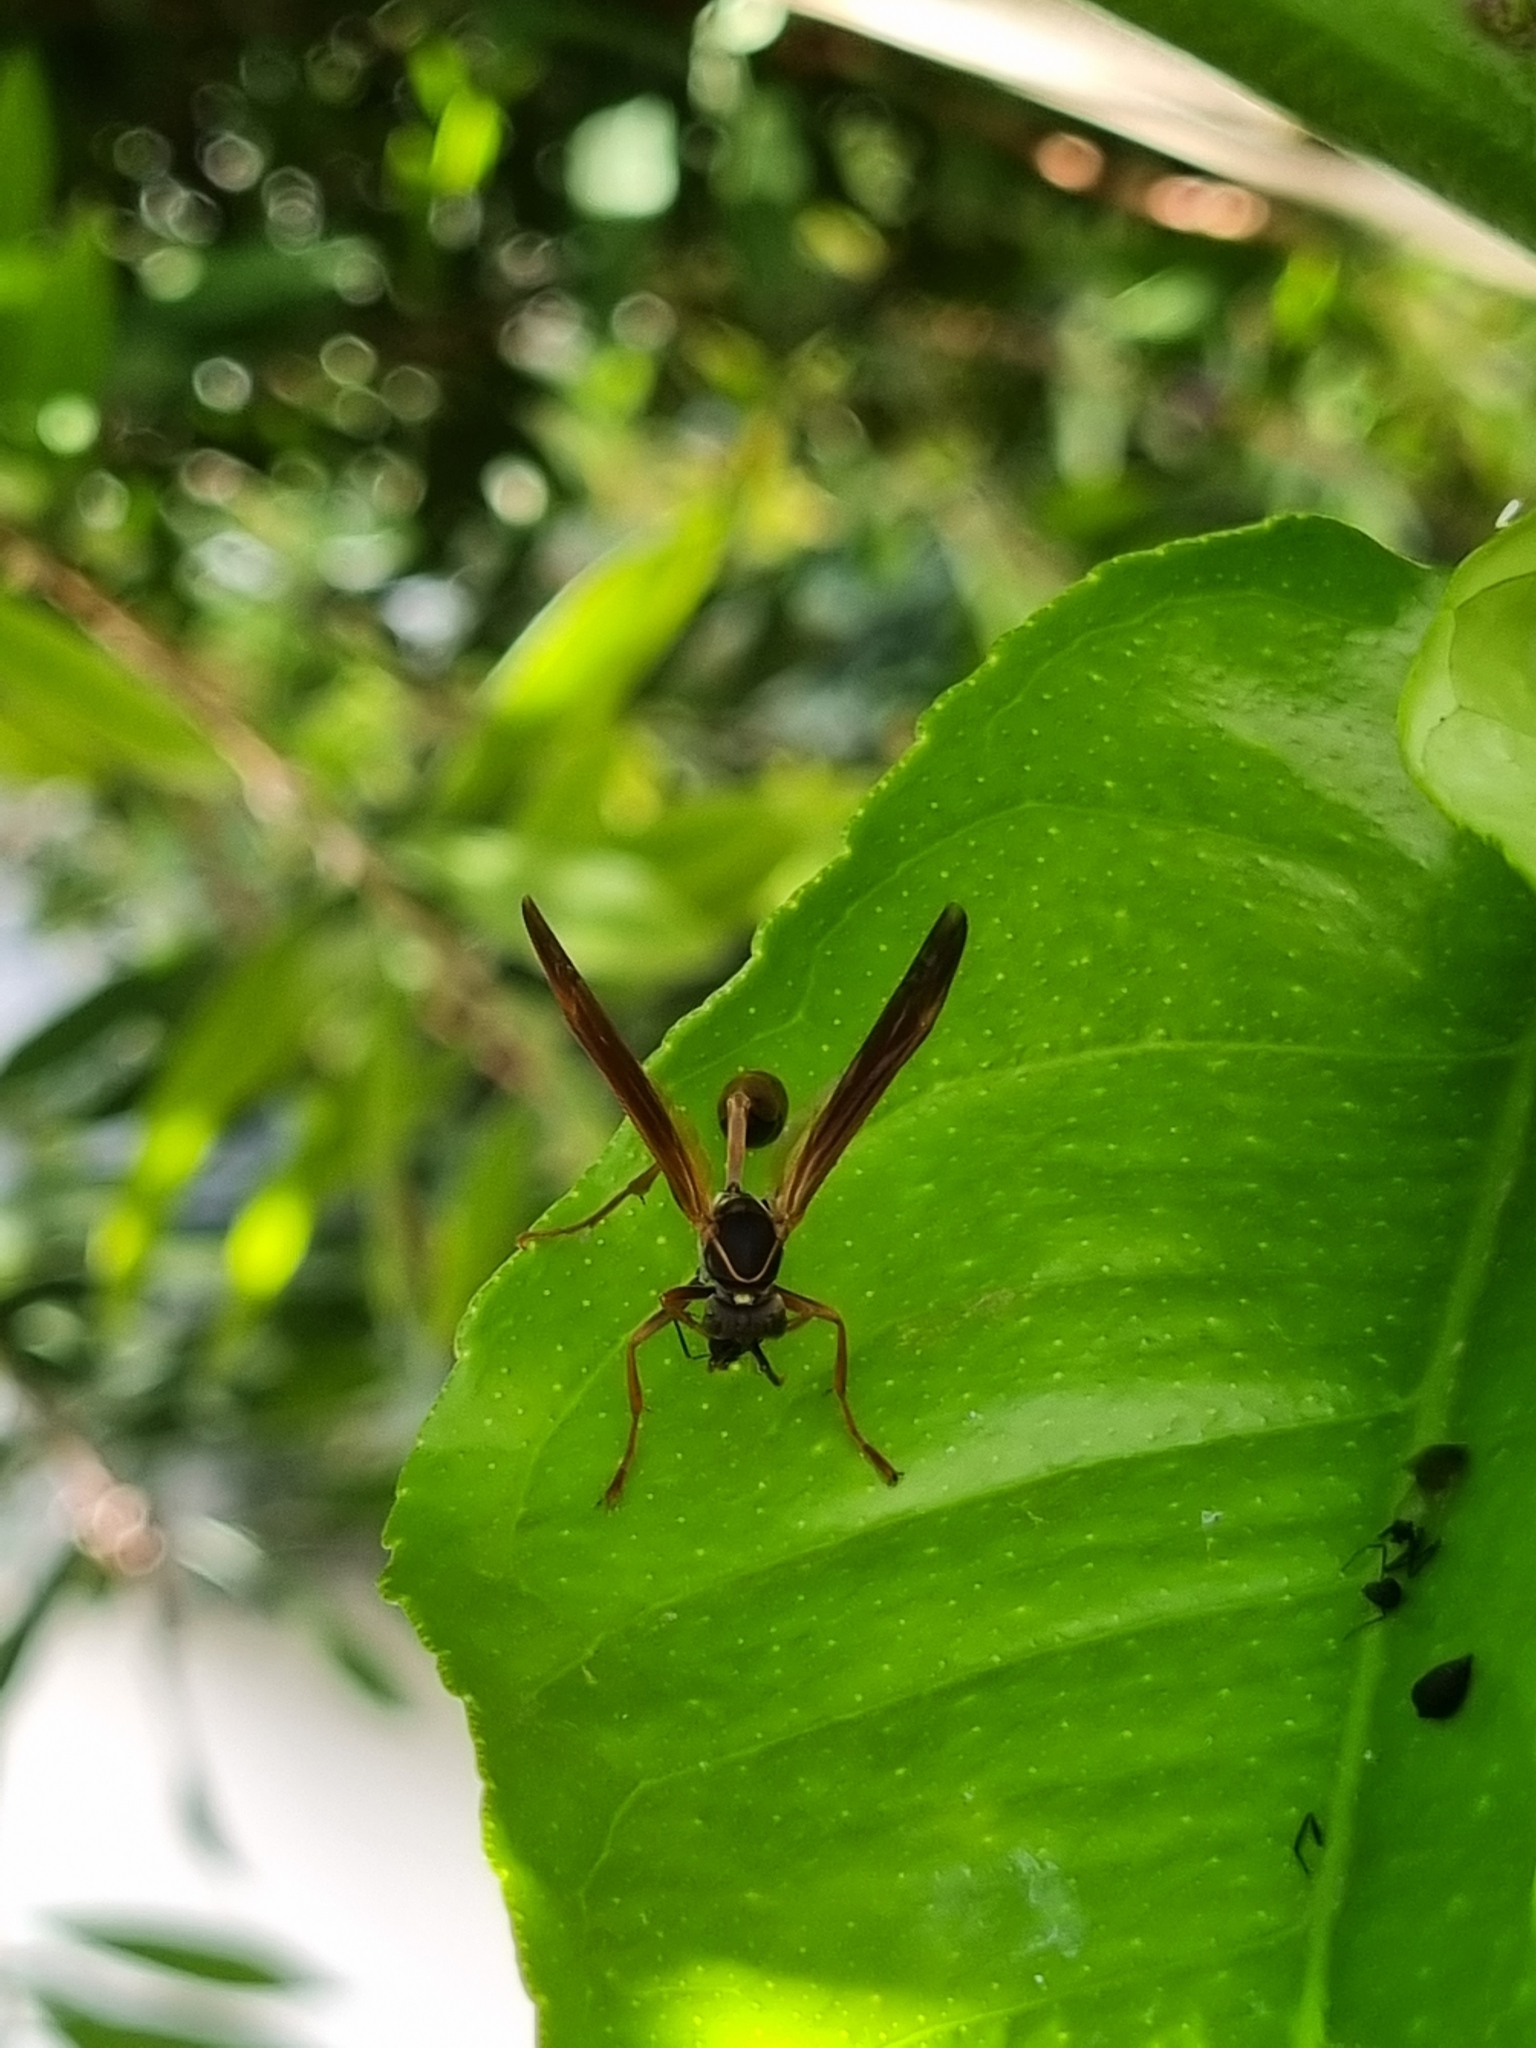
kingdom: Animalia
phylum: Arthropoda
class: Insecta
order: Hymenoptera
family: Vespidae
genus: Mischocyttarus
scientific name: Mischocyttarus drewseni
